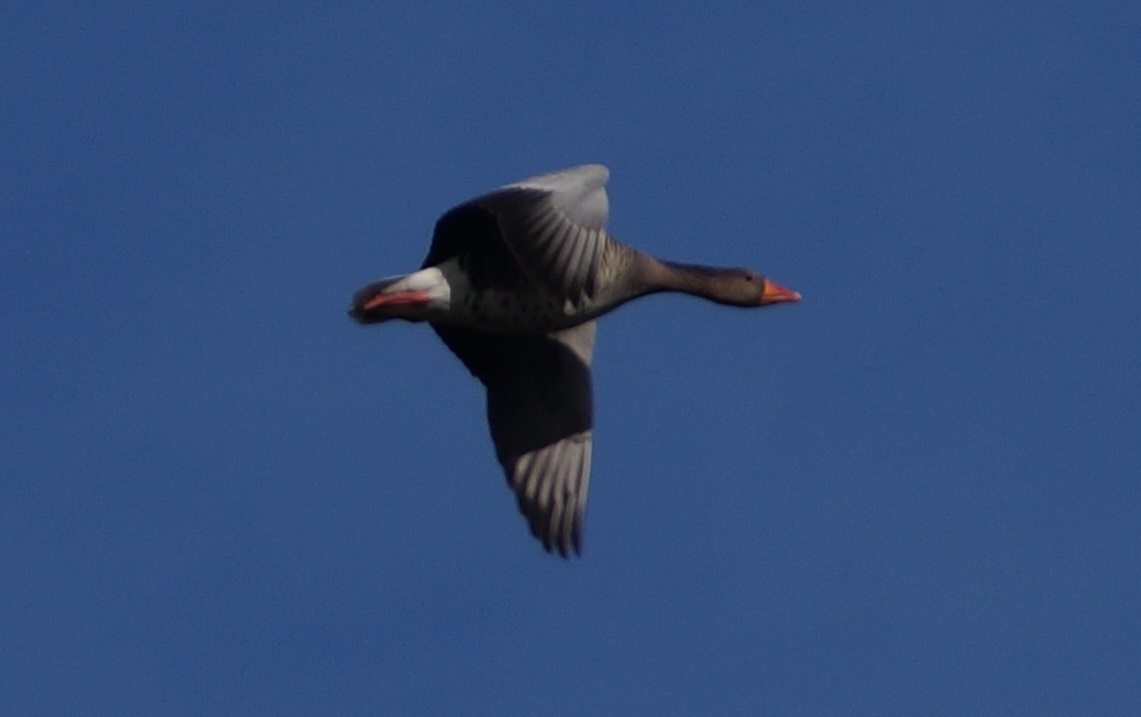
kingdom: Animalia
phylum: Chordata
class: Aves
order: Anseriformes
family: Anatidae
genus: Anser
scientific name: Anser anser
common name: Greylag goose
